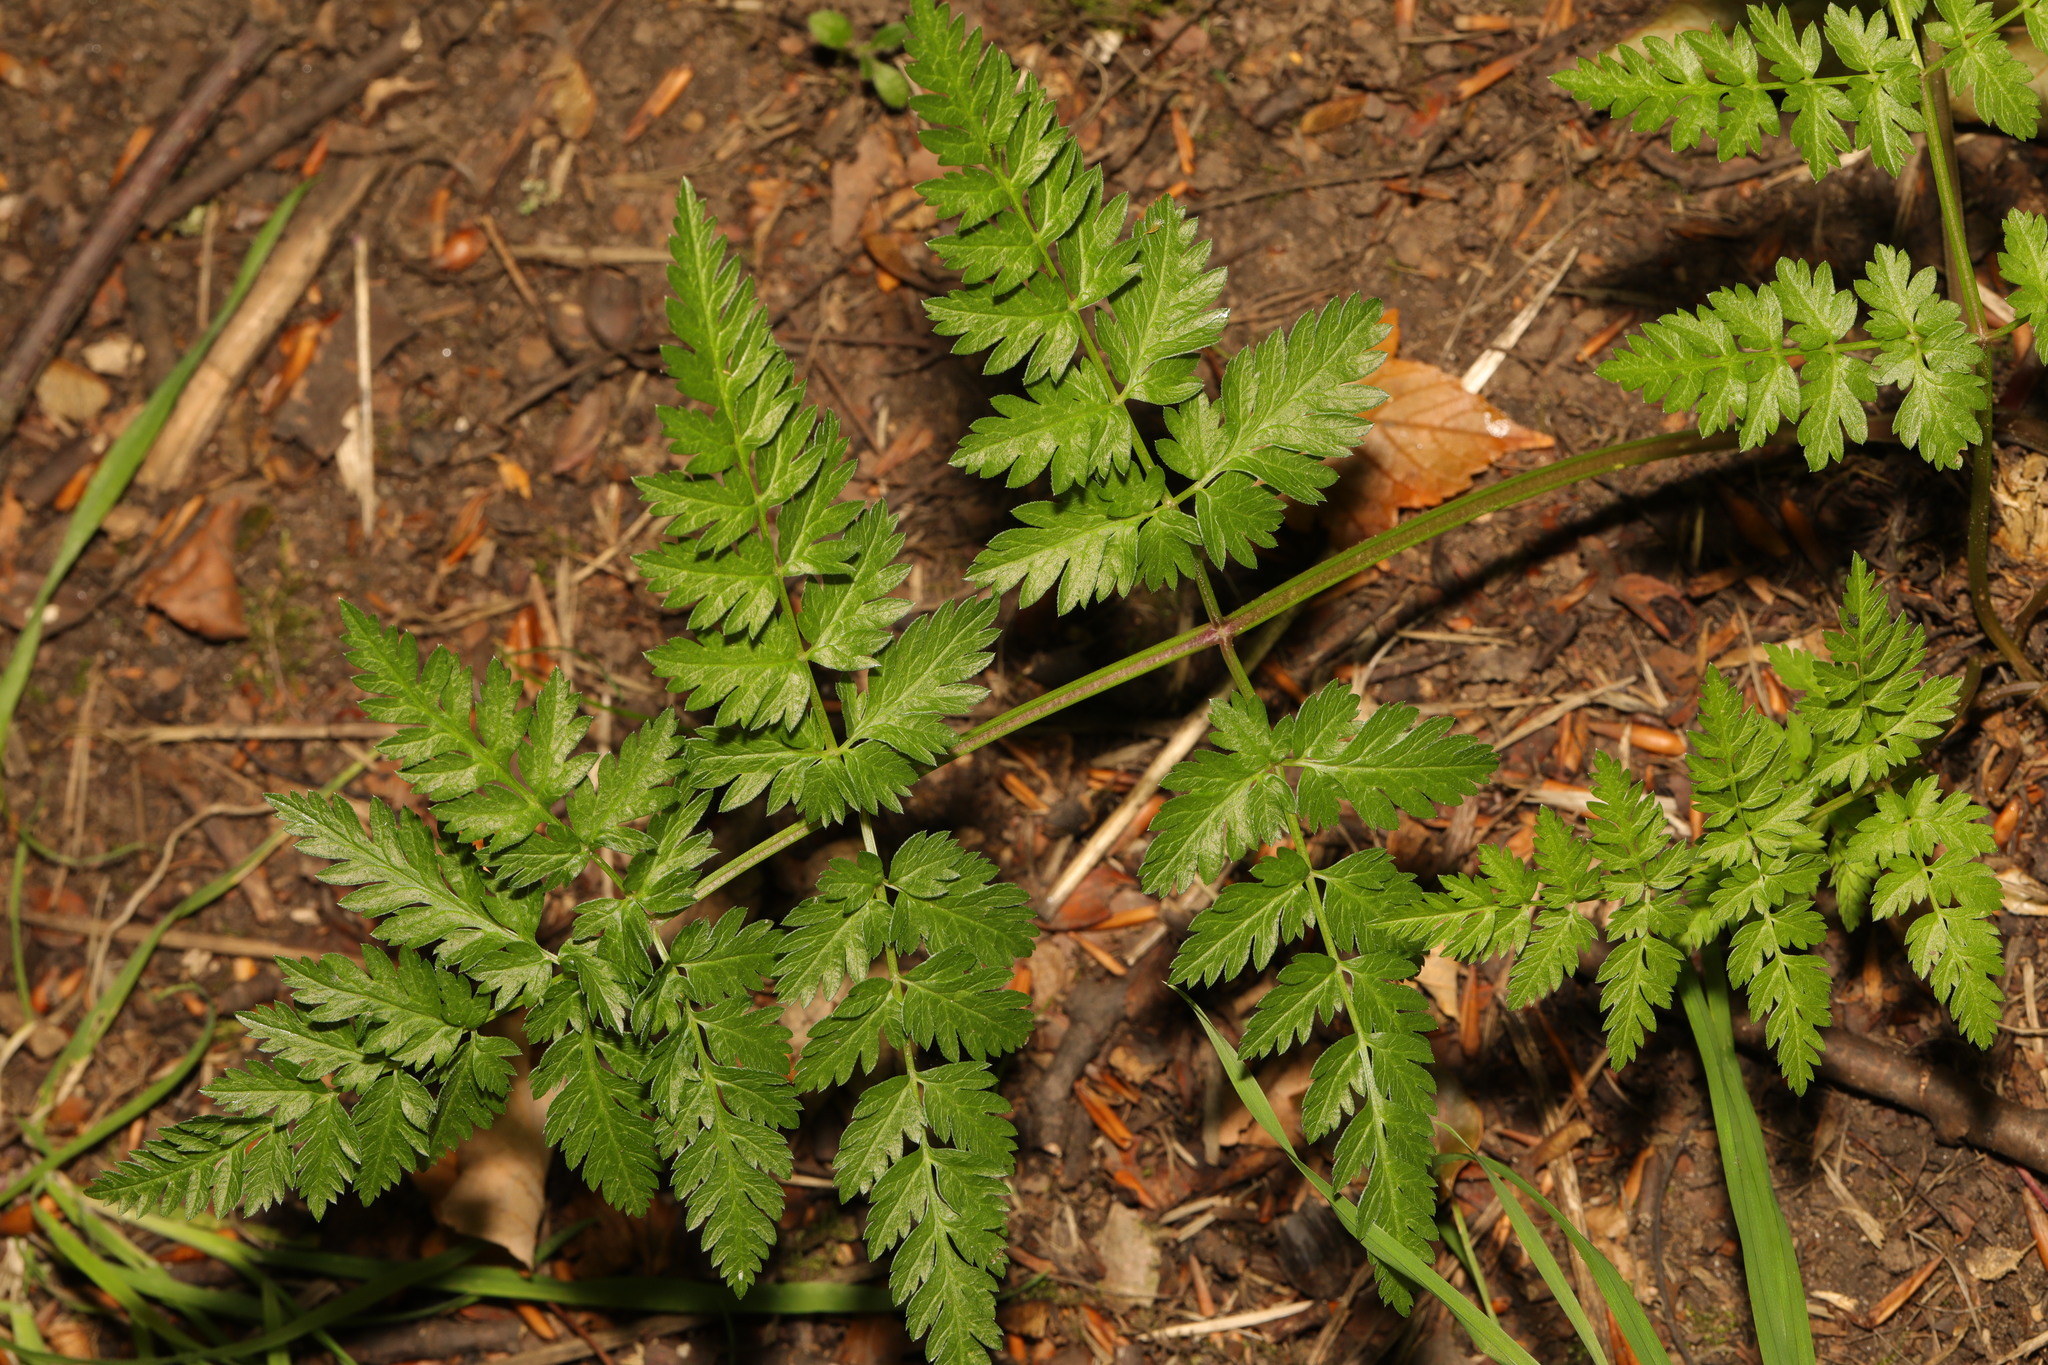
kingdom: Plantae
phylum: Tracheophyta
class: Magnoliopsida
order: Apiales
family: Apiaceae
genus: Anthriscus
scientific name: Anthriscus sylvestris
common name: Cow parsley
